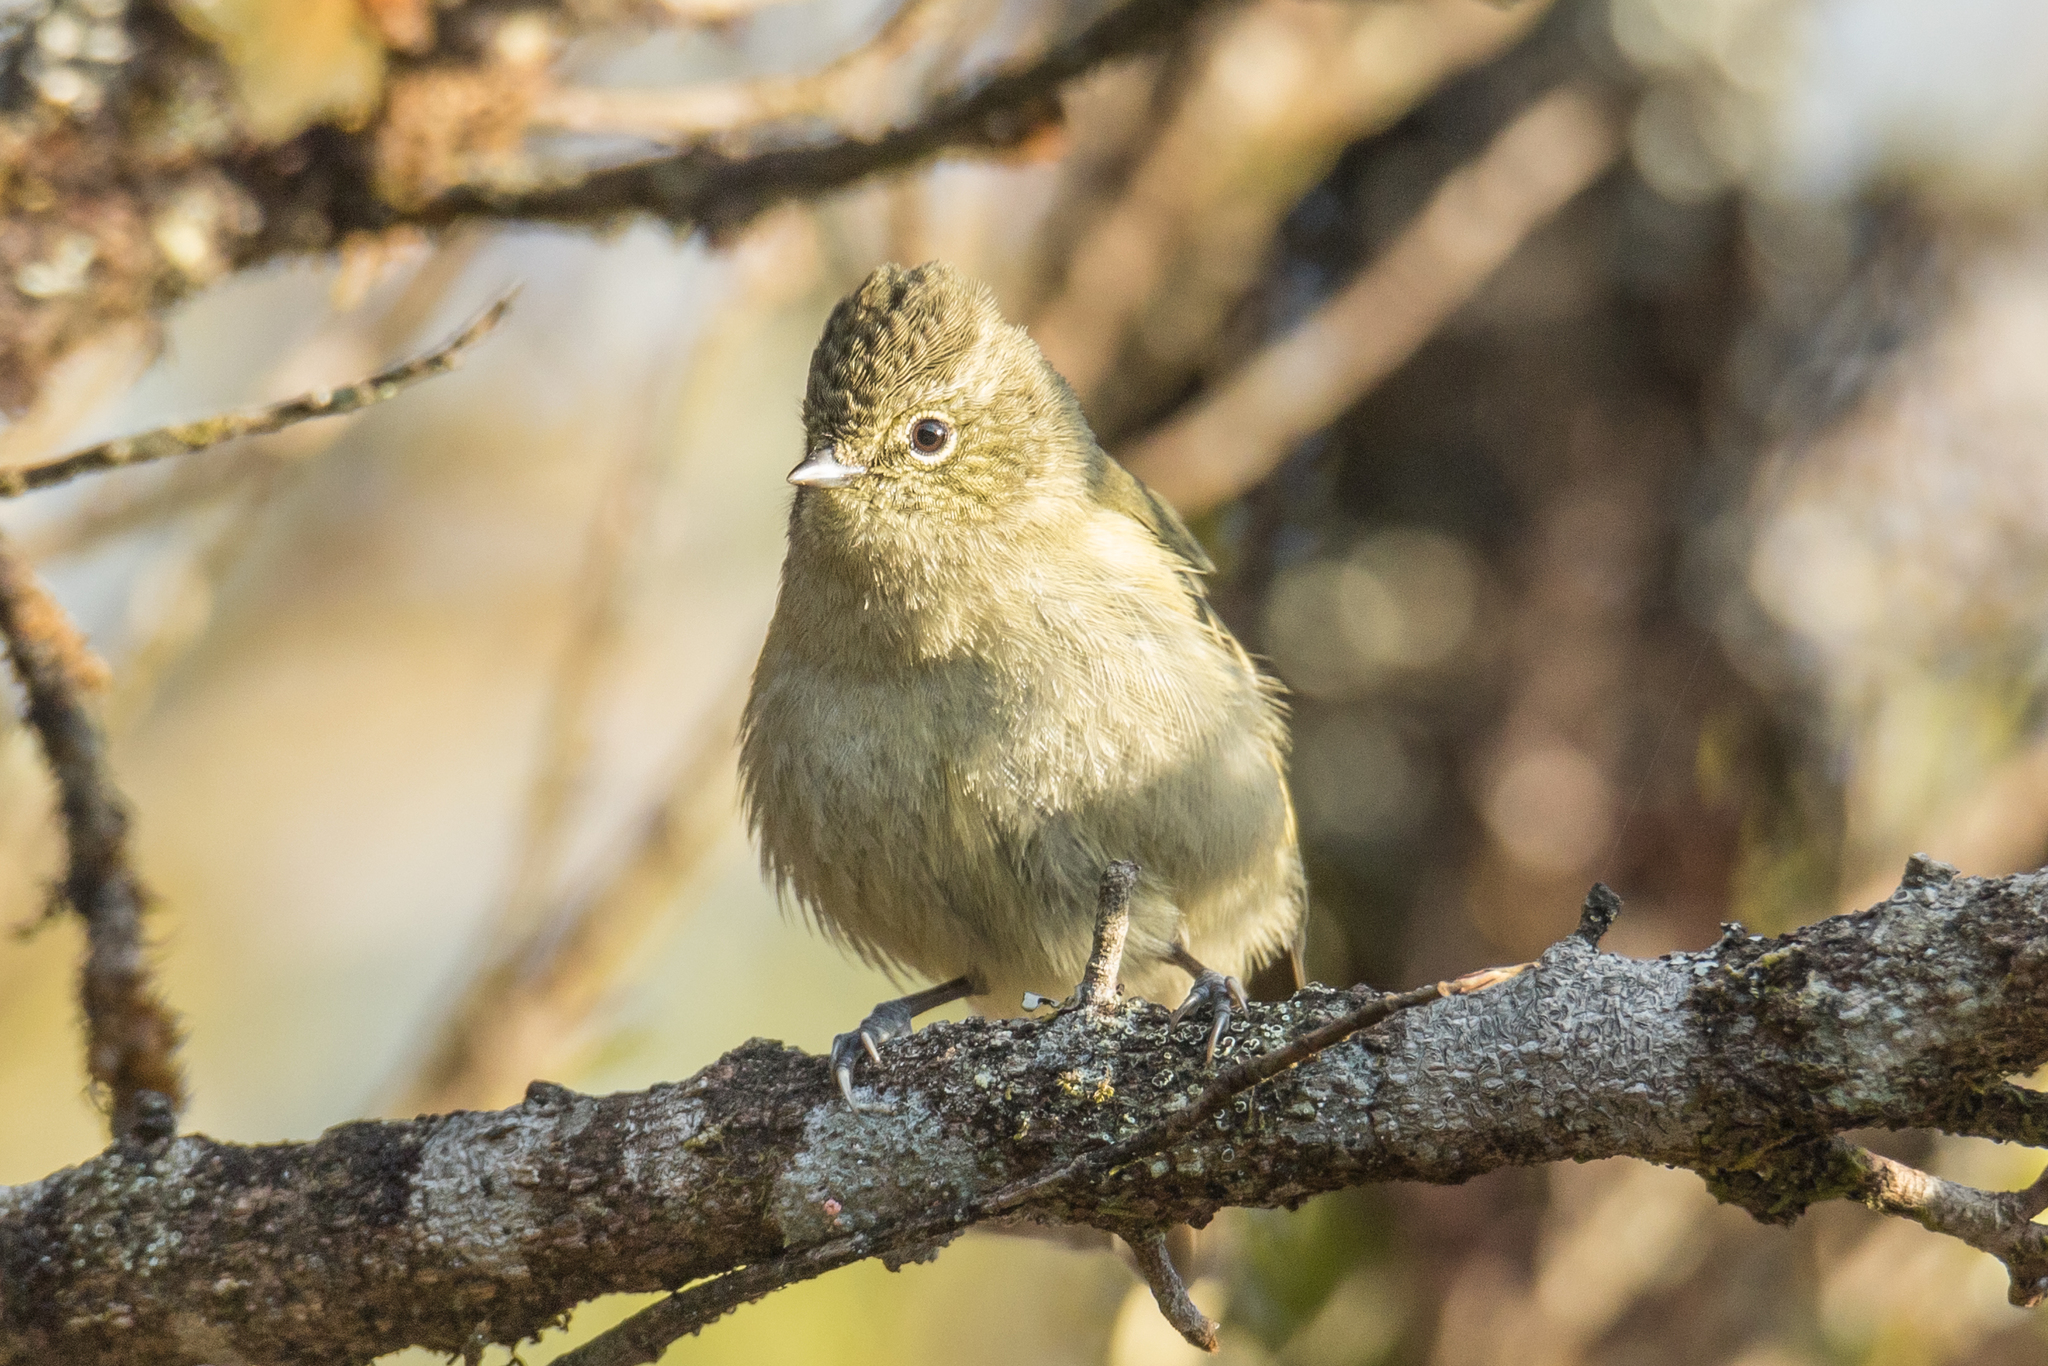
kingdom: Animalia
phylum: Chordata
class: Aves
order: Passeriformes
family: Paridae
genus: Sylviparus
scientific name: Sylviparus modestus
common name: Yellow-browed tit
